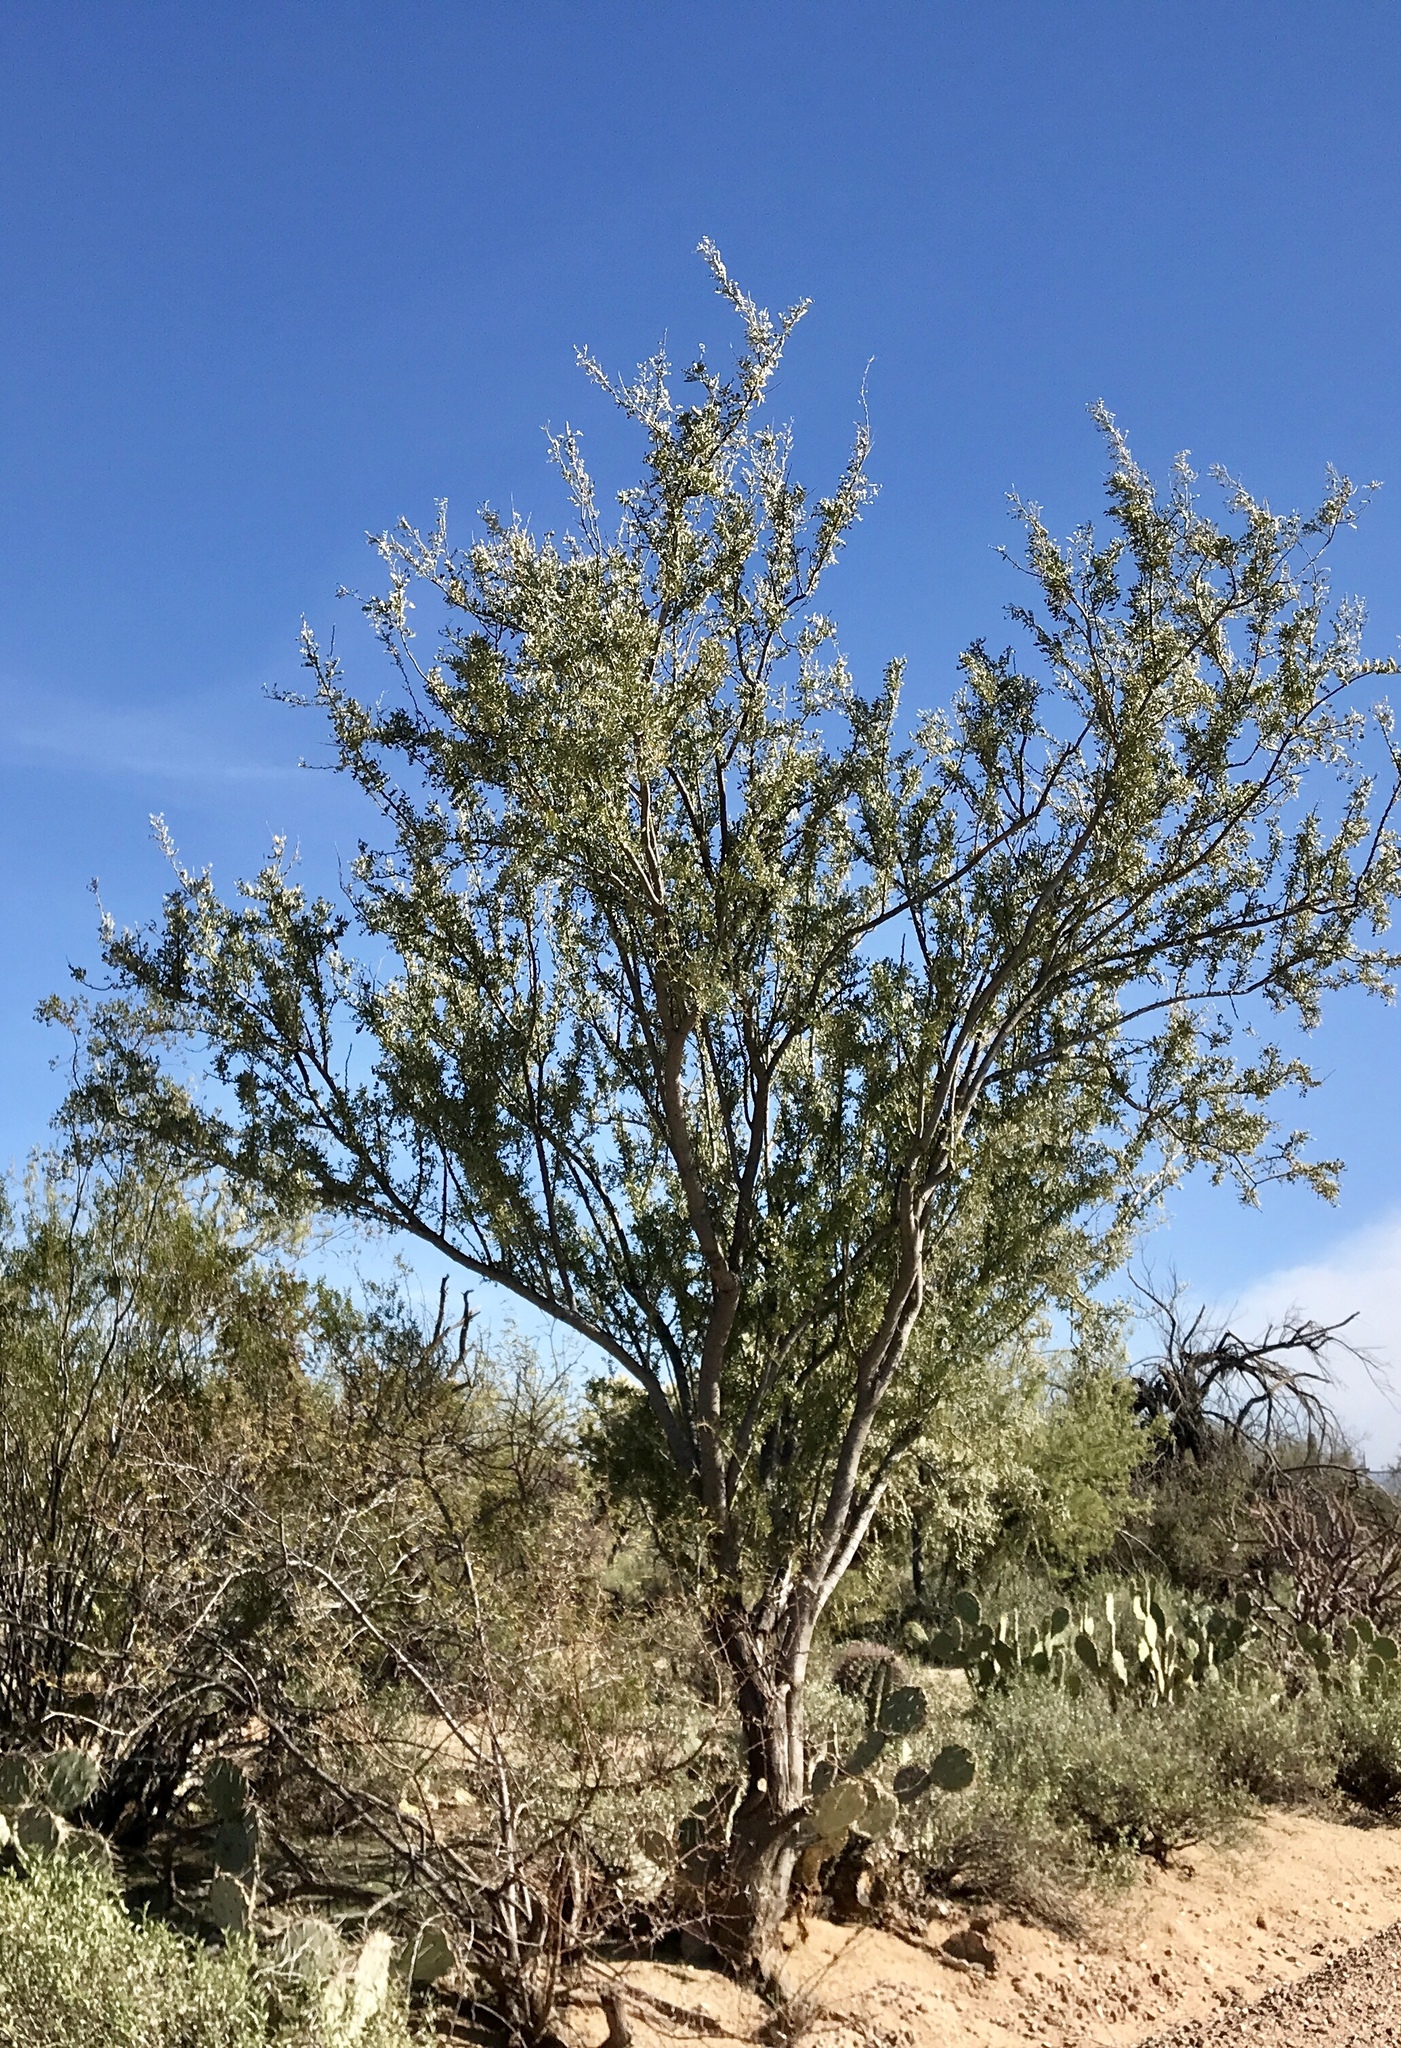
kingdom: Plantae
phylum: Tracheophyta
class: Magnoliopsida
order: Fabales
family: Fabaceae
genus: Olneya
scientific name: Olneya tesota
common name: Desert ironwood
